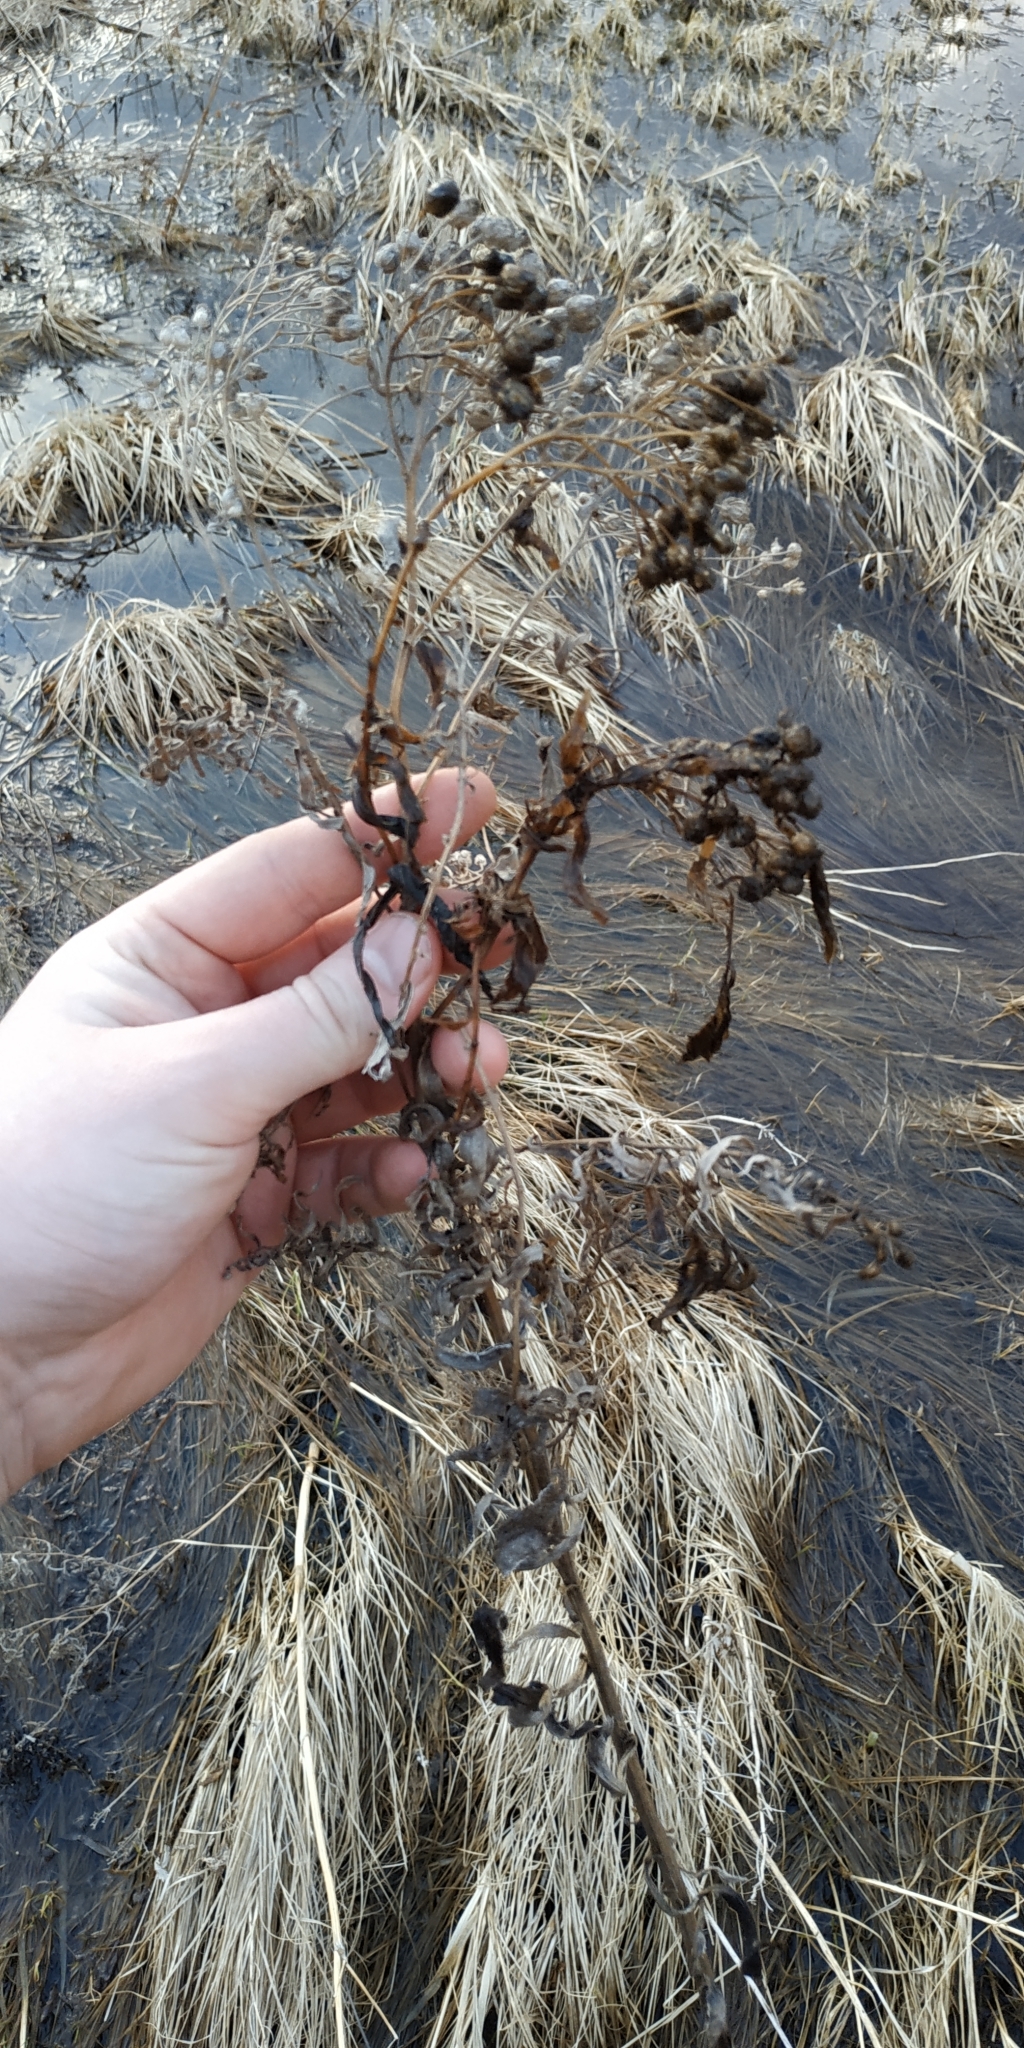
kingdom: Plantae
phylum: Tracheophyta
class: Magnoliopsida
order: Asterales
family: Asteraceae
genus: Achillea
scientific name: Achillea salicifolia
